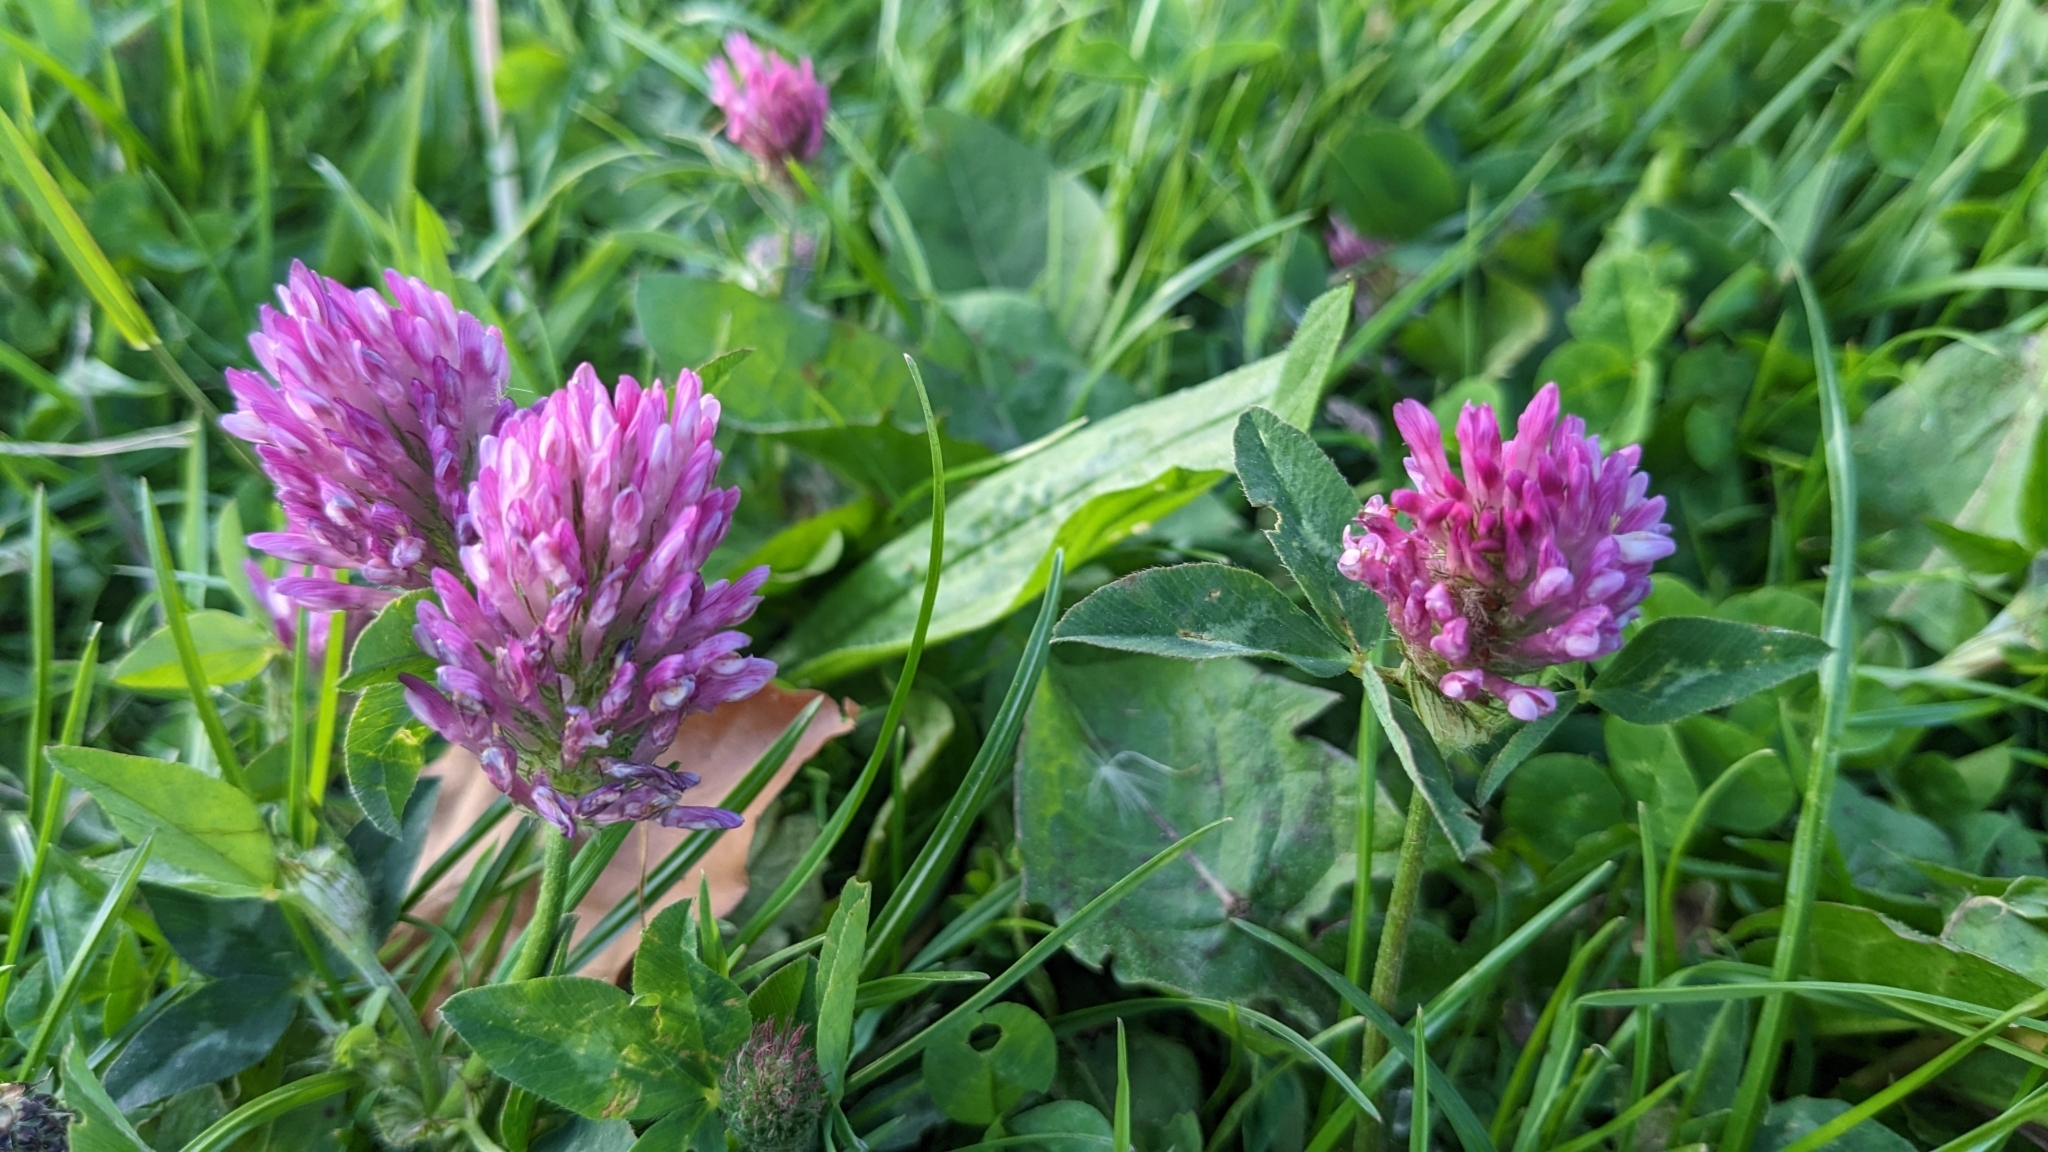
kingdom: Plantae
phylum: Tracheophyta
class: Magnoliopsida
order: Fabales
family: Fabaceae
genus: Trifolium
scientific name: Trifolium pratense
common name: Red clover
